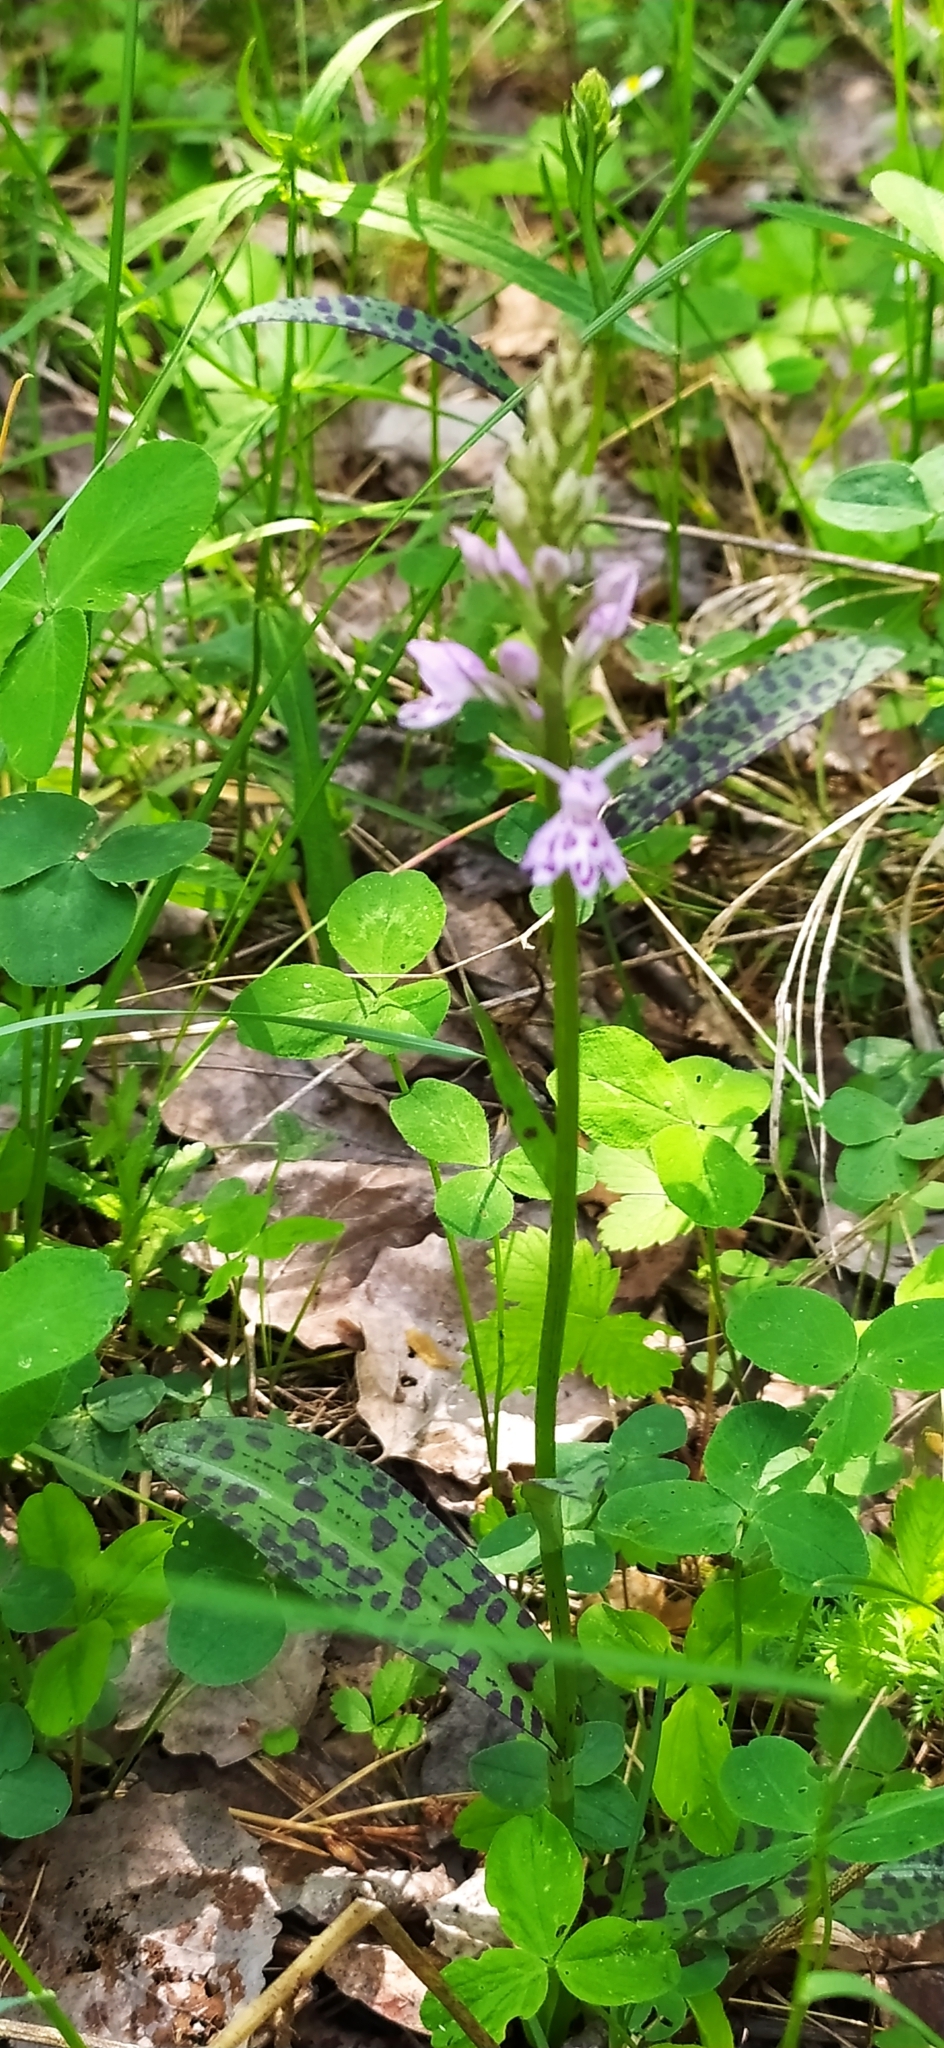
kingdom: Plantae
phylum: Tracheophyta
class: Liliopsida
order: Asparagales
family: Orchidaceae
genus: Dactylorhiza
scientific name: Dactylorhiza maculata
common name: Heath spotted-orchid
